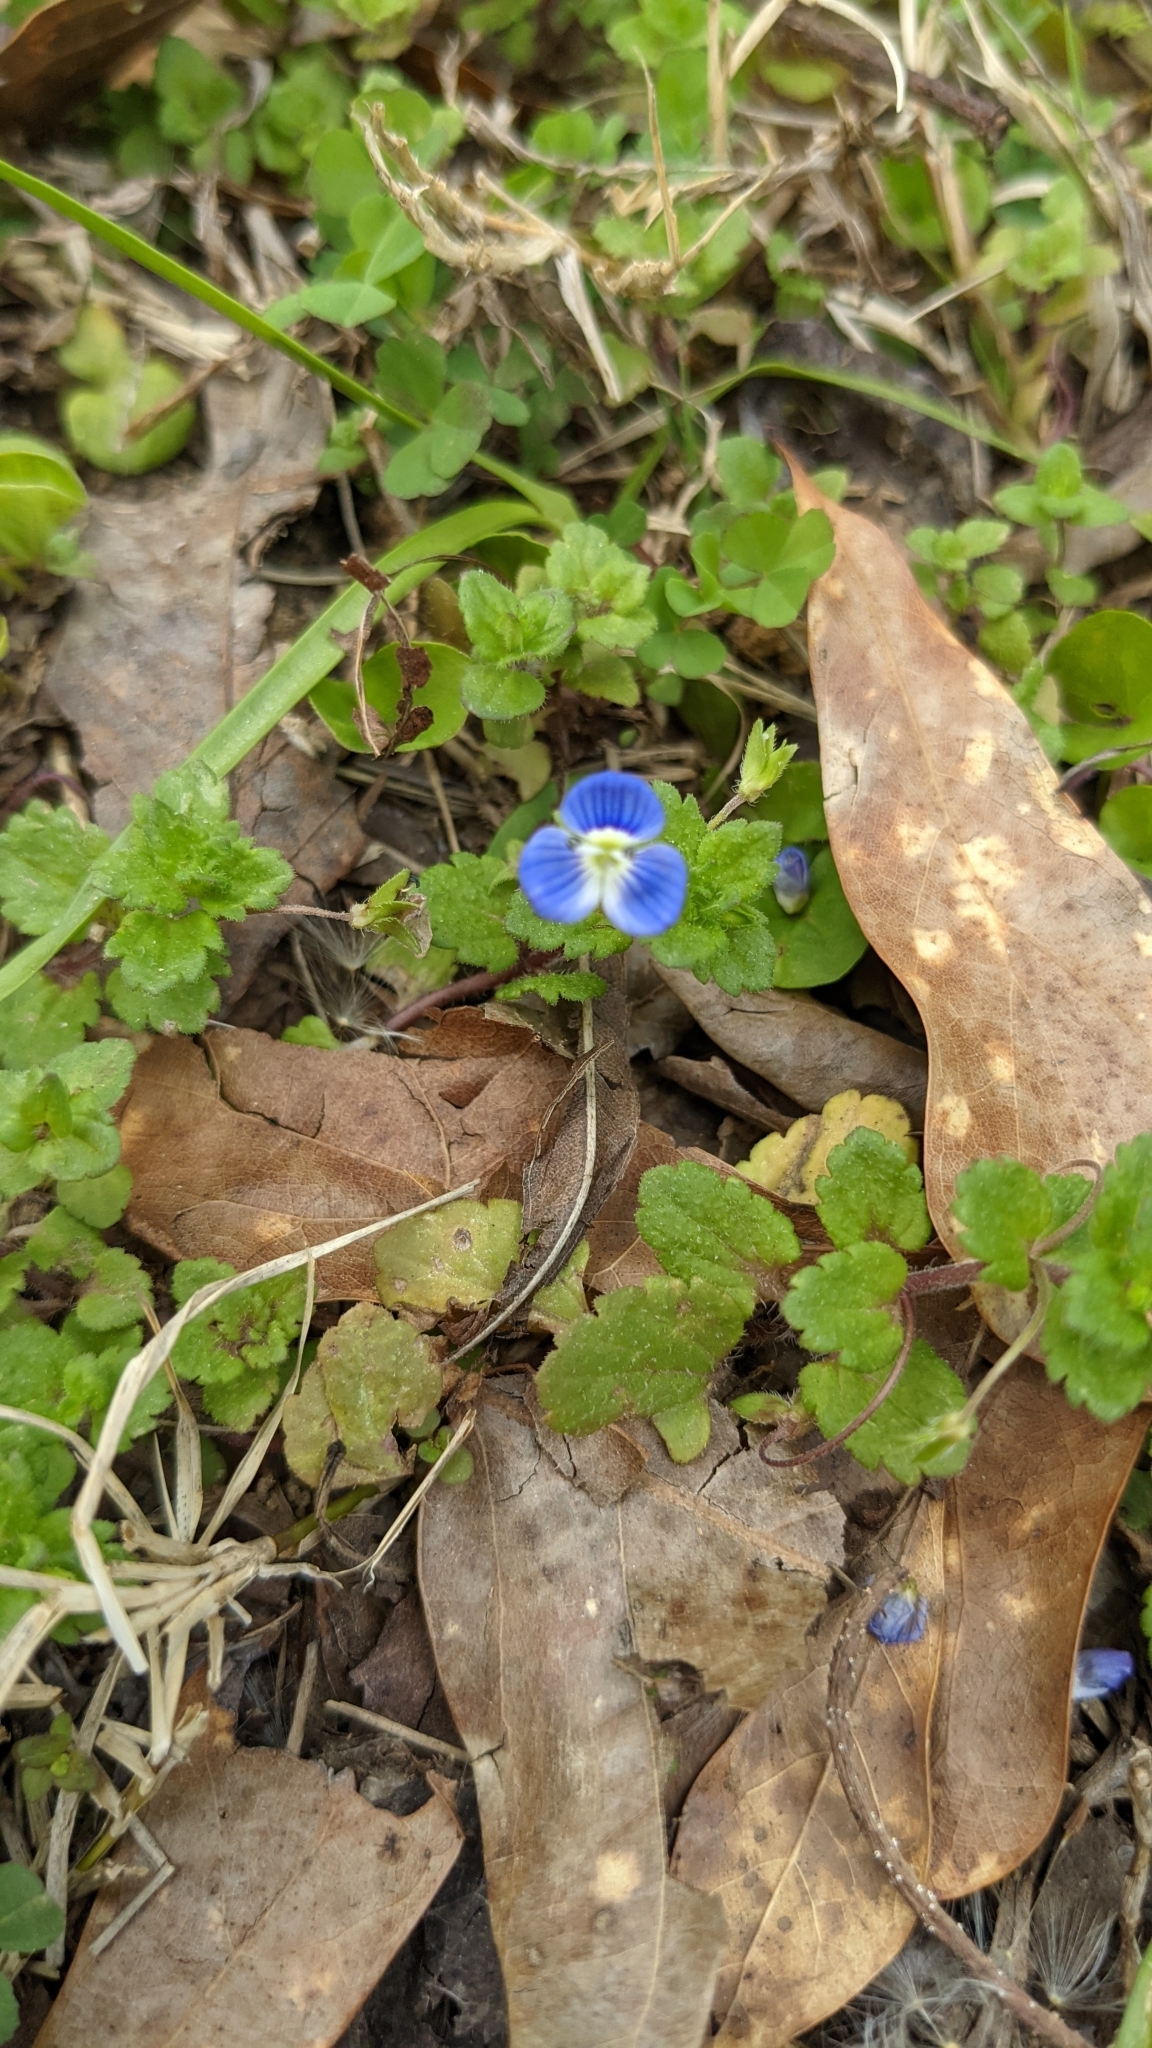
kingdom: Plantae
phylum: Tracheophyta
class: Magnoliopsida
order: Lamiales
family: Plantaginaceae
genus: Veronica
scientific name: Veronica persica
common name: Common field-speedwell
